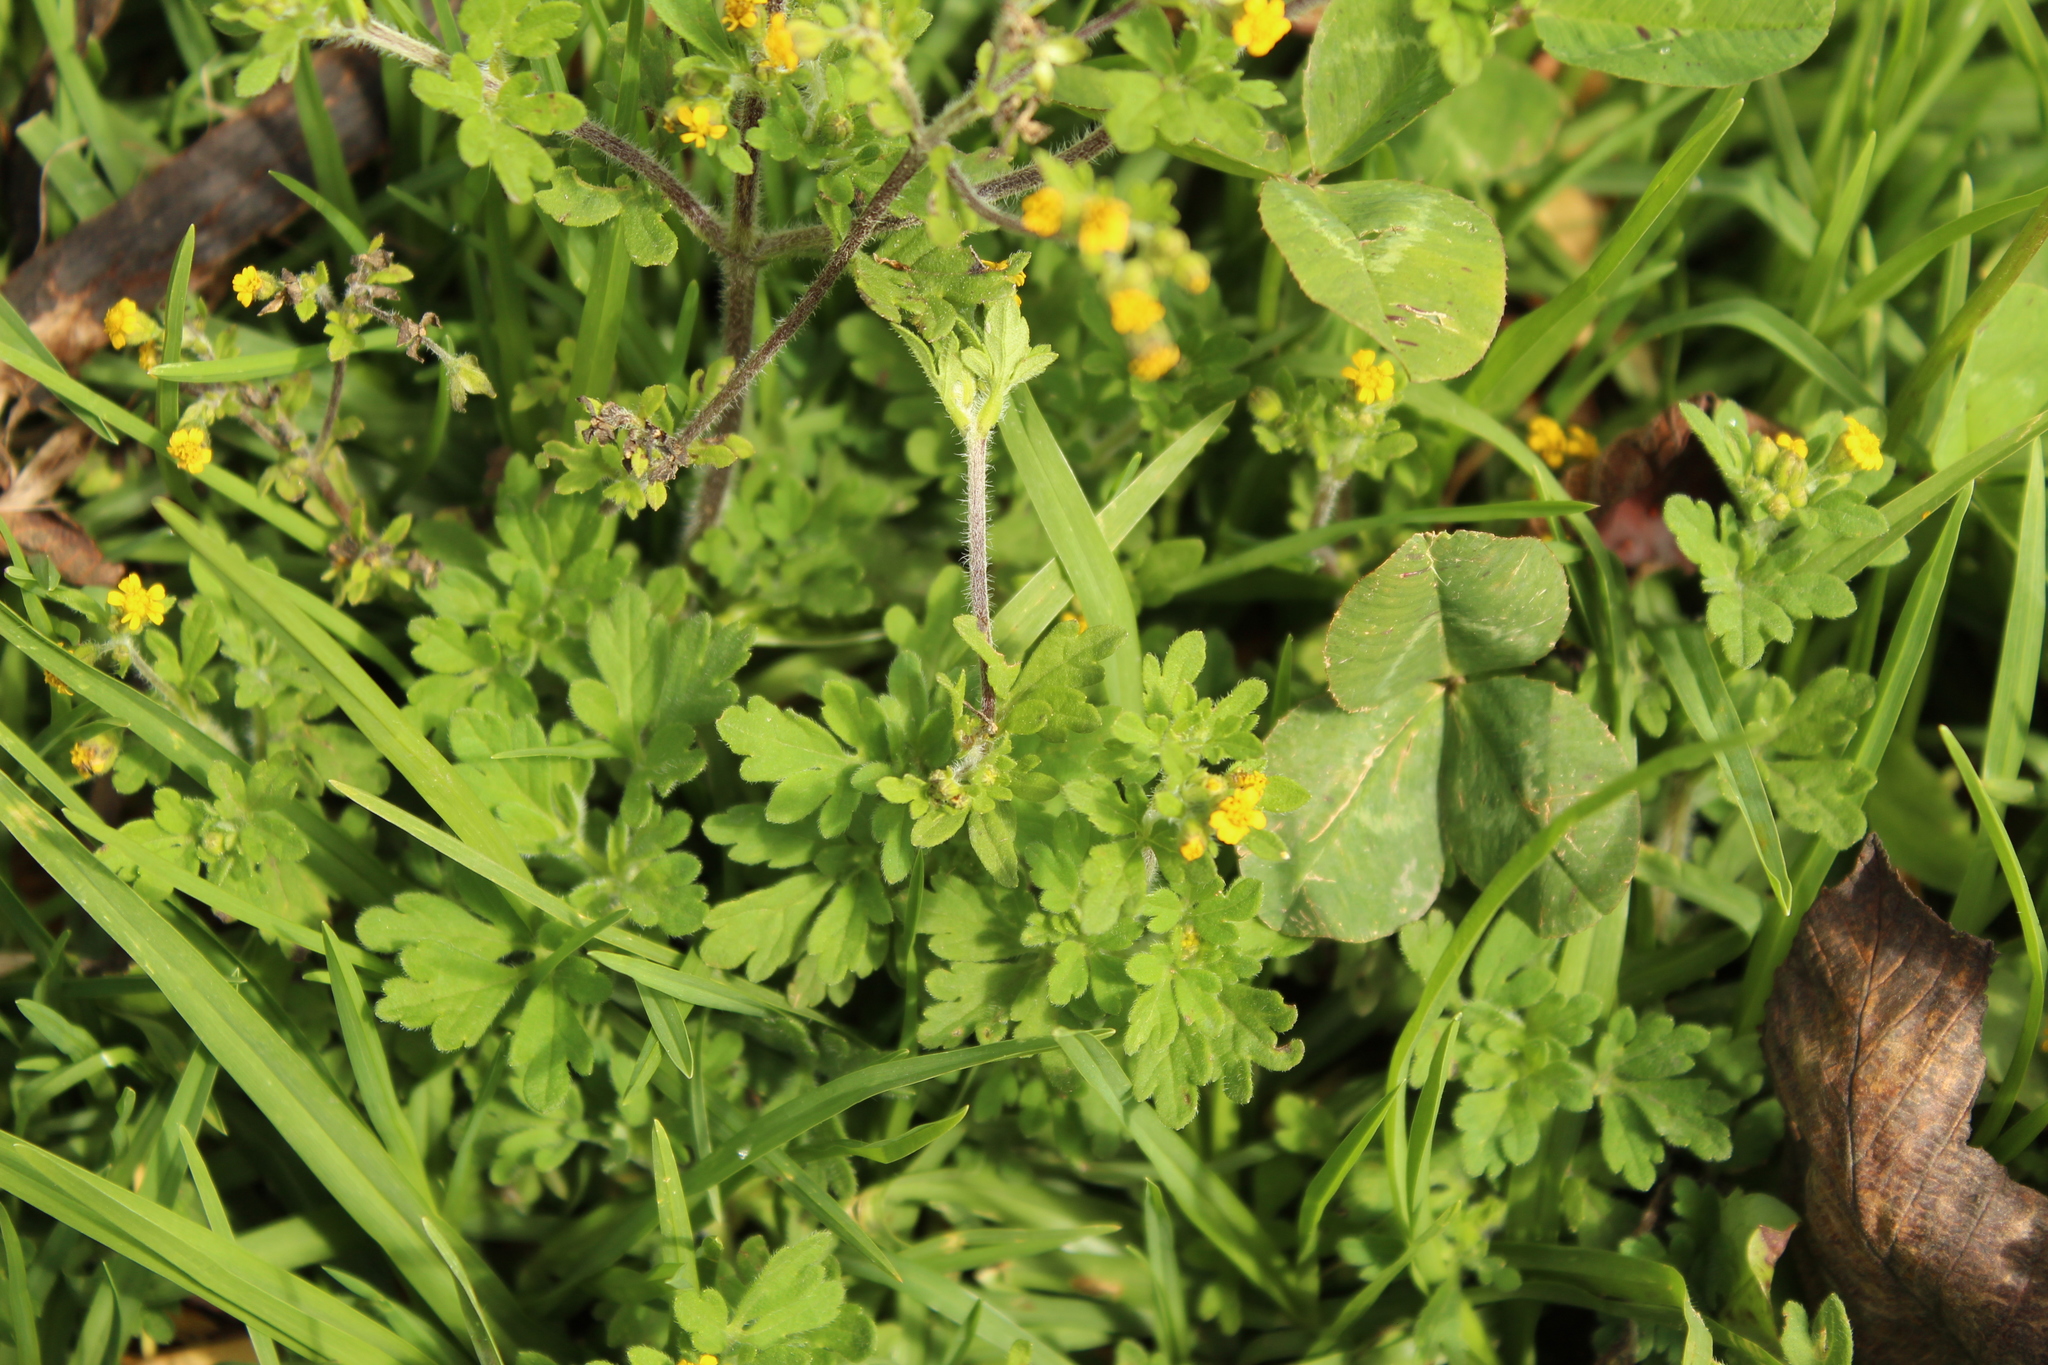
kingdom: Plantae
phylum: Tracheophyta
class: Magnoliopsida
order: Asterales
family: Asteraceae
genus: Villanova
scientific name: Villanova oppositifolia
